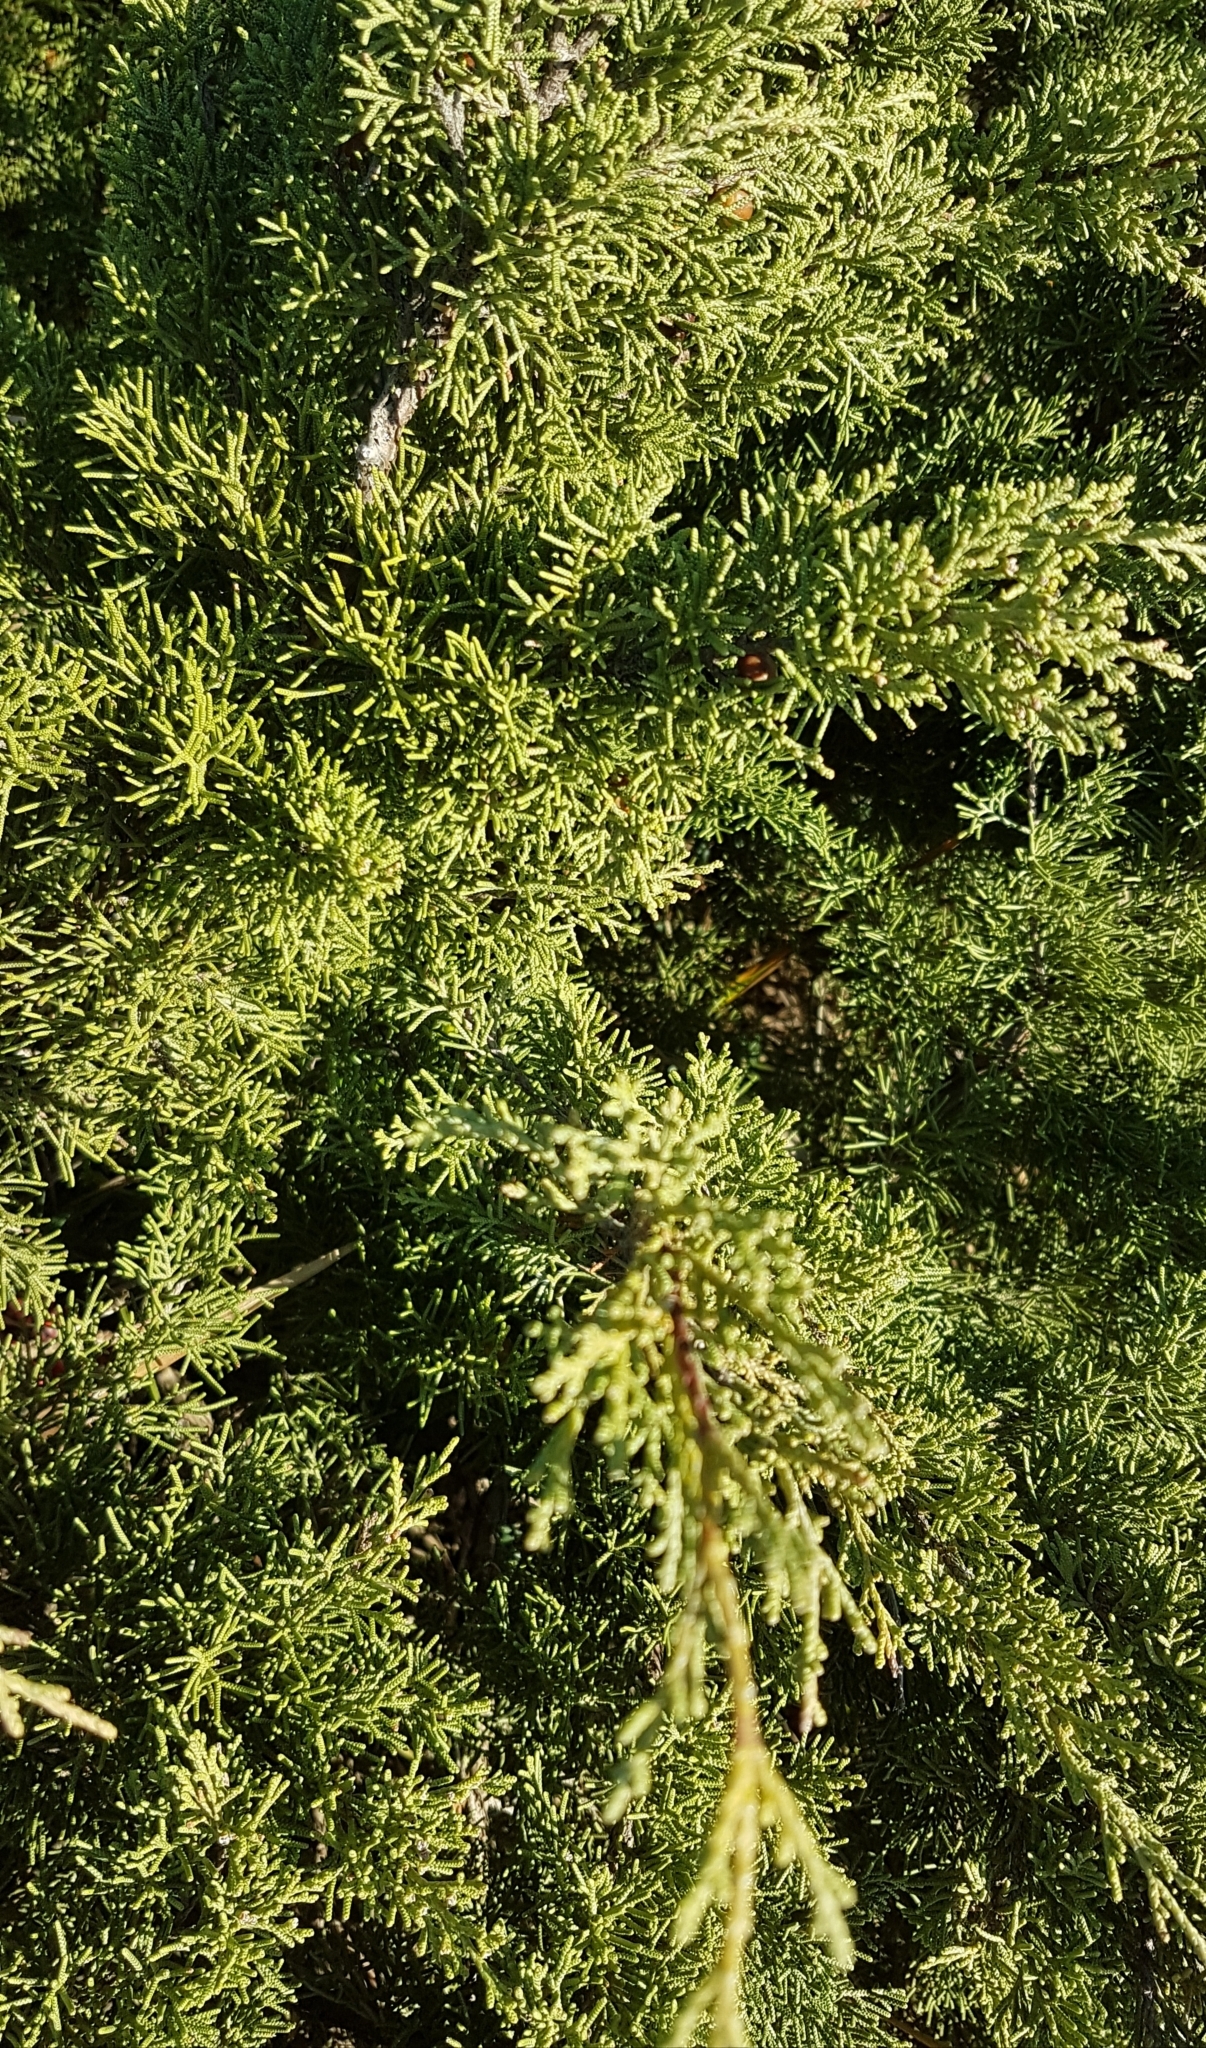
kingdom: Plantae
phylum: Tracheophyta
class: Pinopsida
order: Pinales
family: Cupressaceae
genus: Juniperus
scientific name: Juniperus phoenicea
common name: Phoenician juniper
